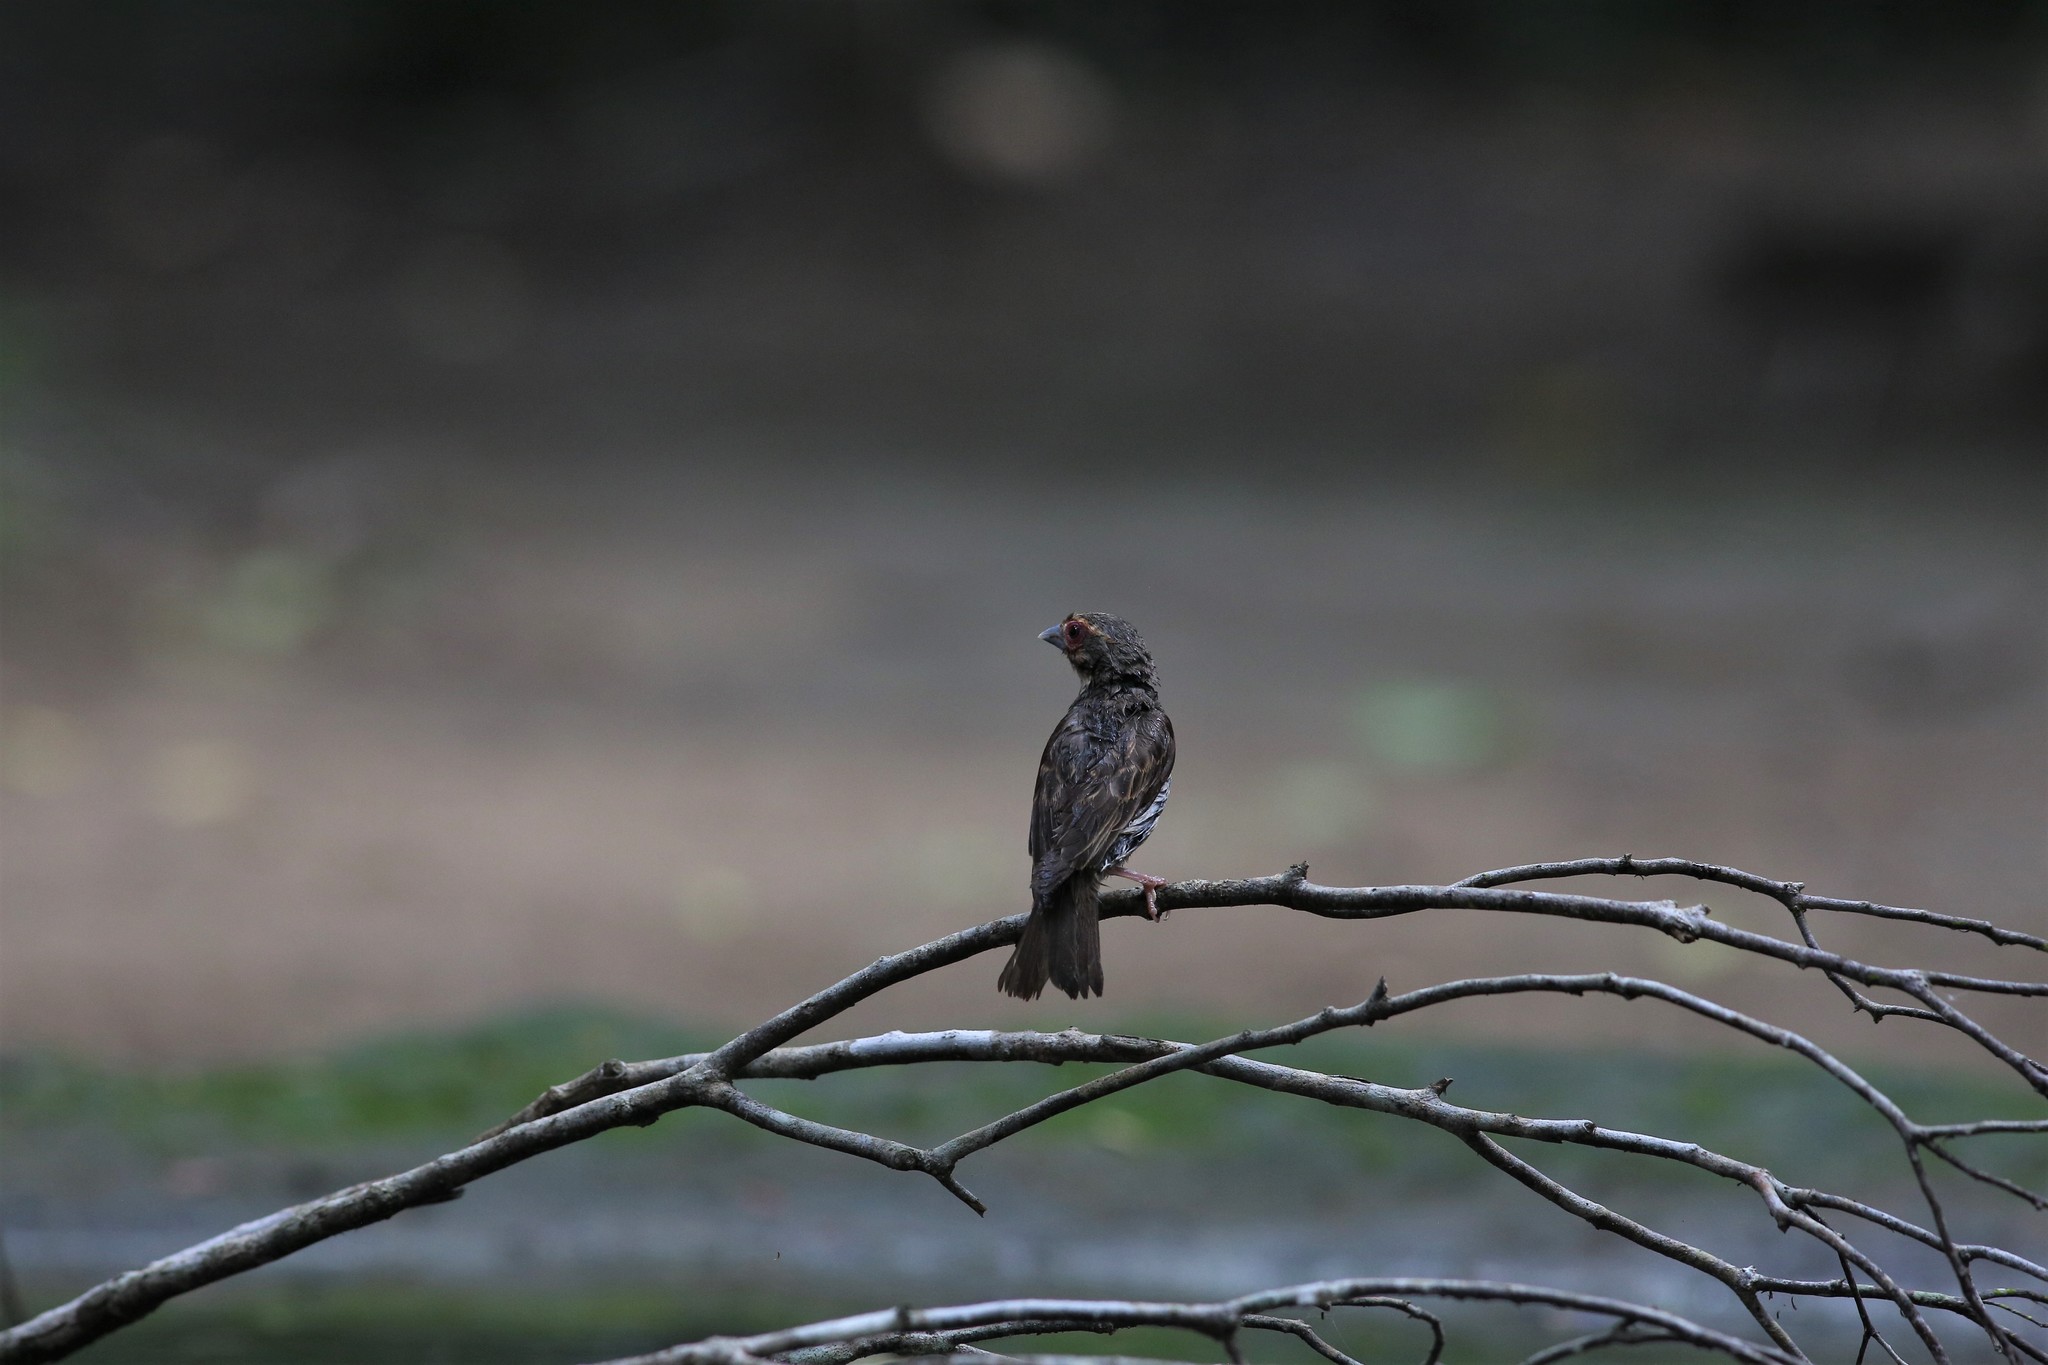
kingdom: Animalia
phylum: Chordata
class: Aves
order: Passeriformes
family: Ploceidae
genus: Ploceus
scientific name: Ploceus sakalava
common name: Sakalava weaver
